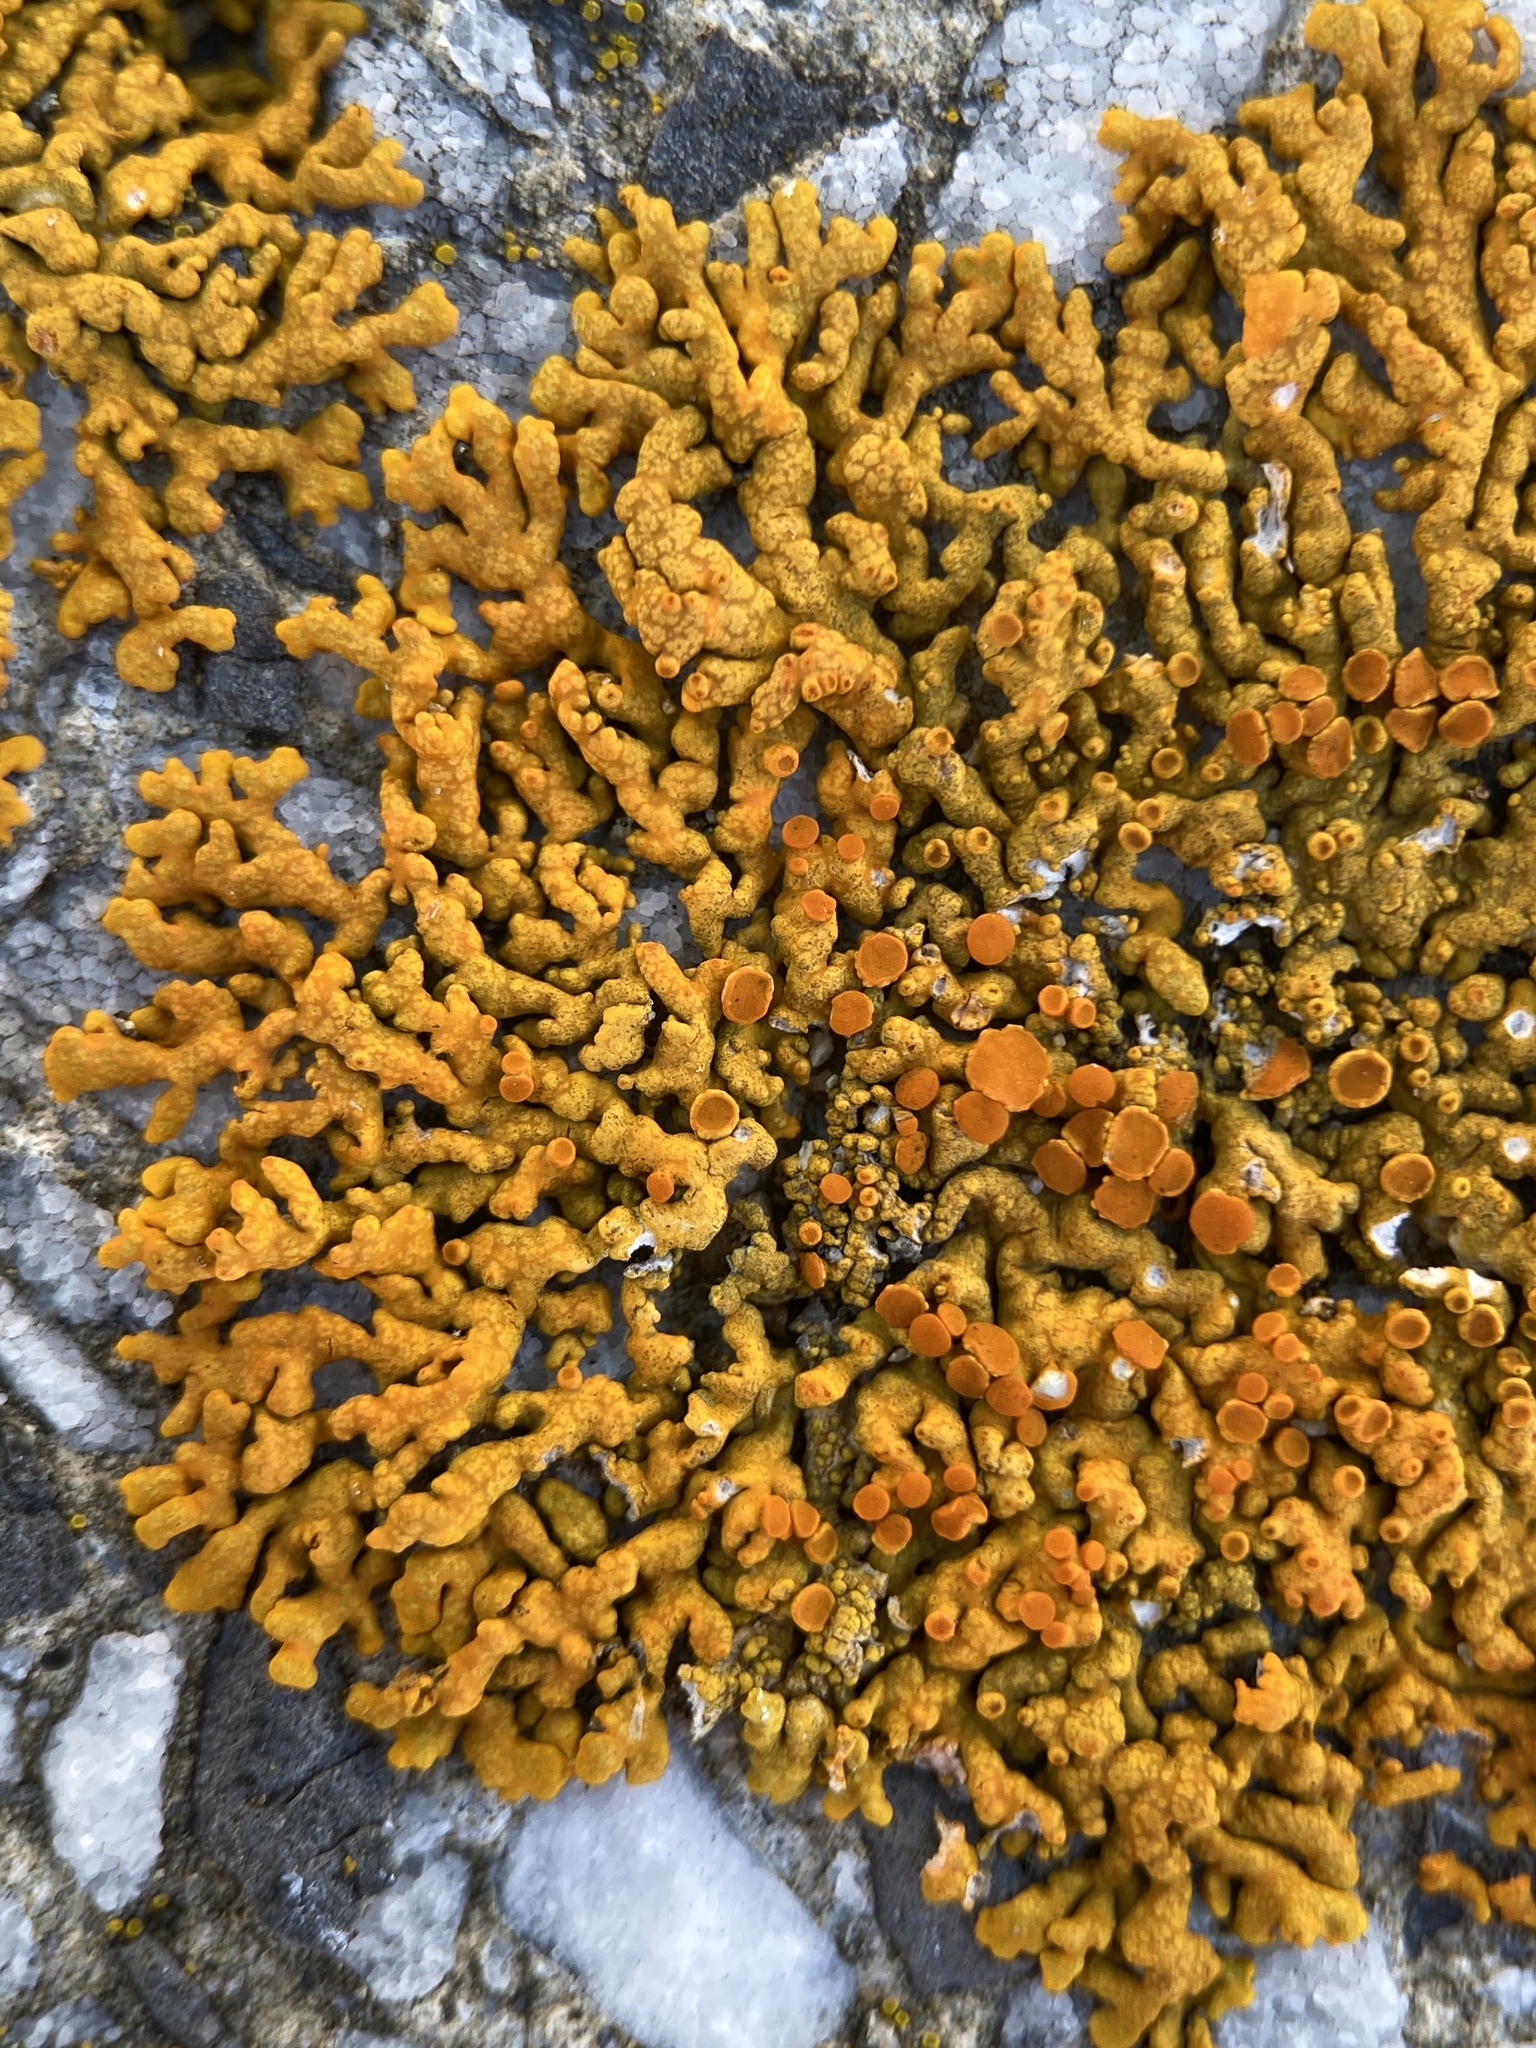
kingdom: Fungi
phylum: Ascomycota
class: Lecanoromycetes
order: Teloschistales
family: Teloschistaceae
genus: Xanthoria
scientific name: Xanthoria elegans
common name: Elegant sunburst lichen
